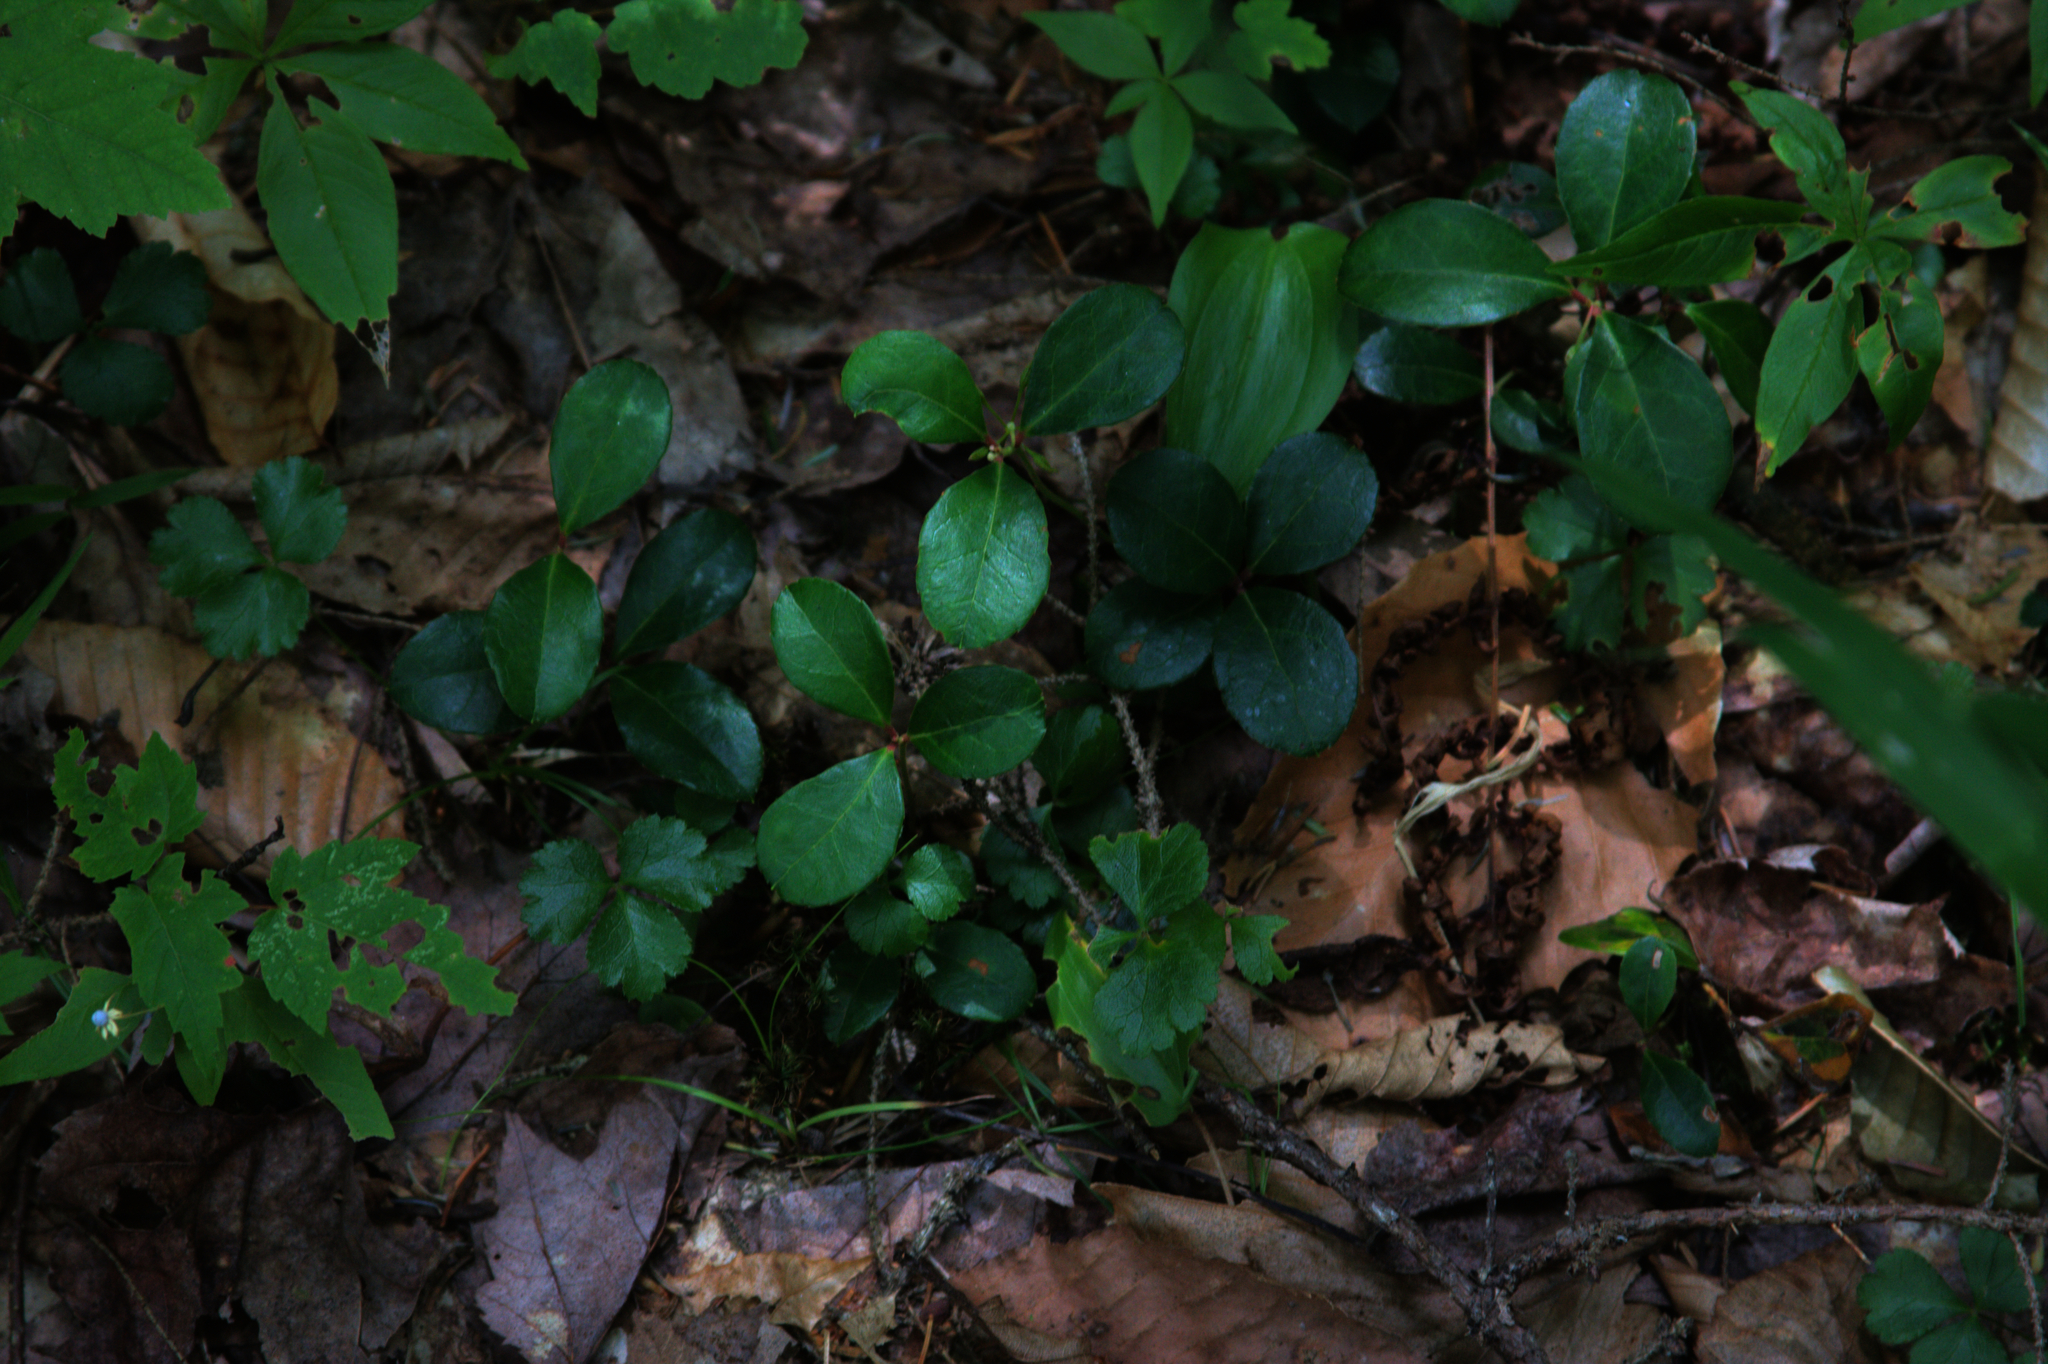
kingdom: Plantae
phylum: Tracheophyta
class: Magnoliopsida
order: Ranunculales
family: Ranunculaceae
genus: Coptis
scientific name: Coptis trifolia
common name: Canker-root
